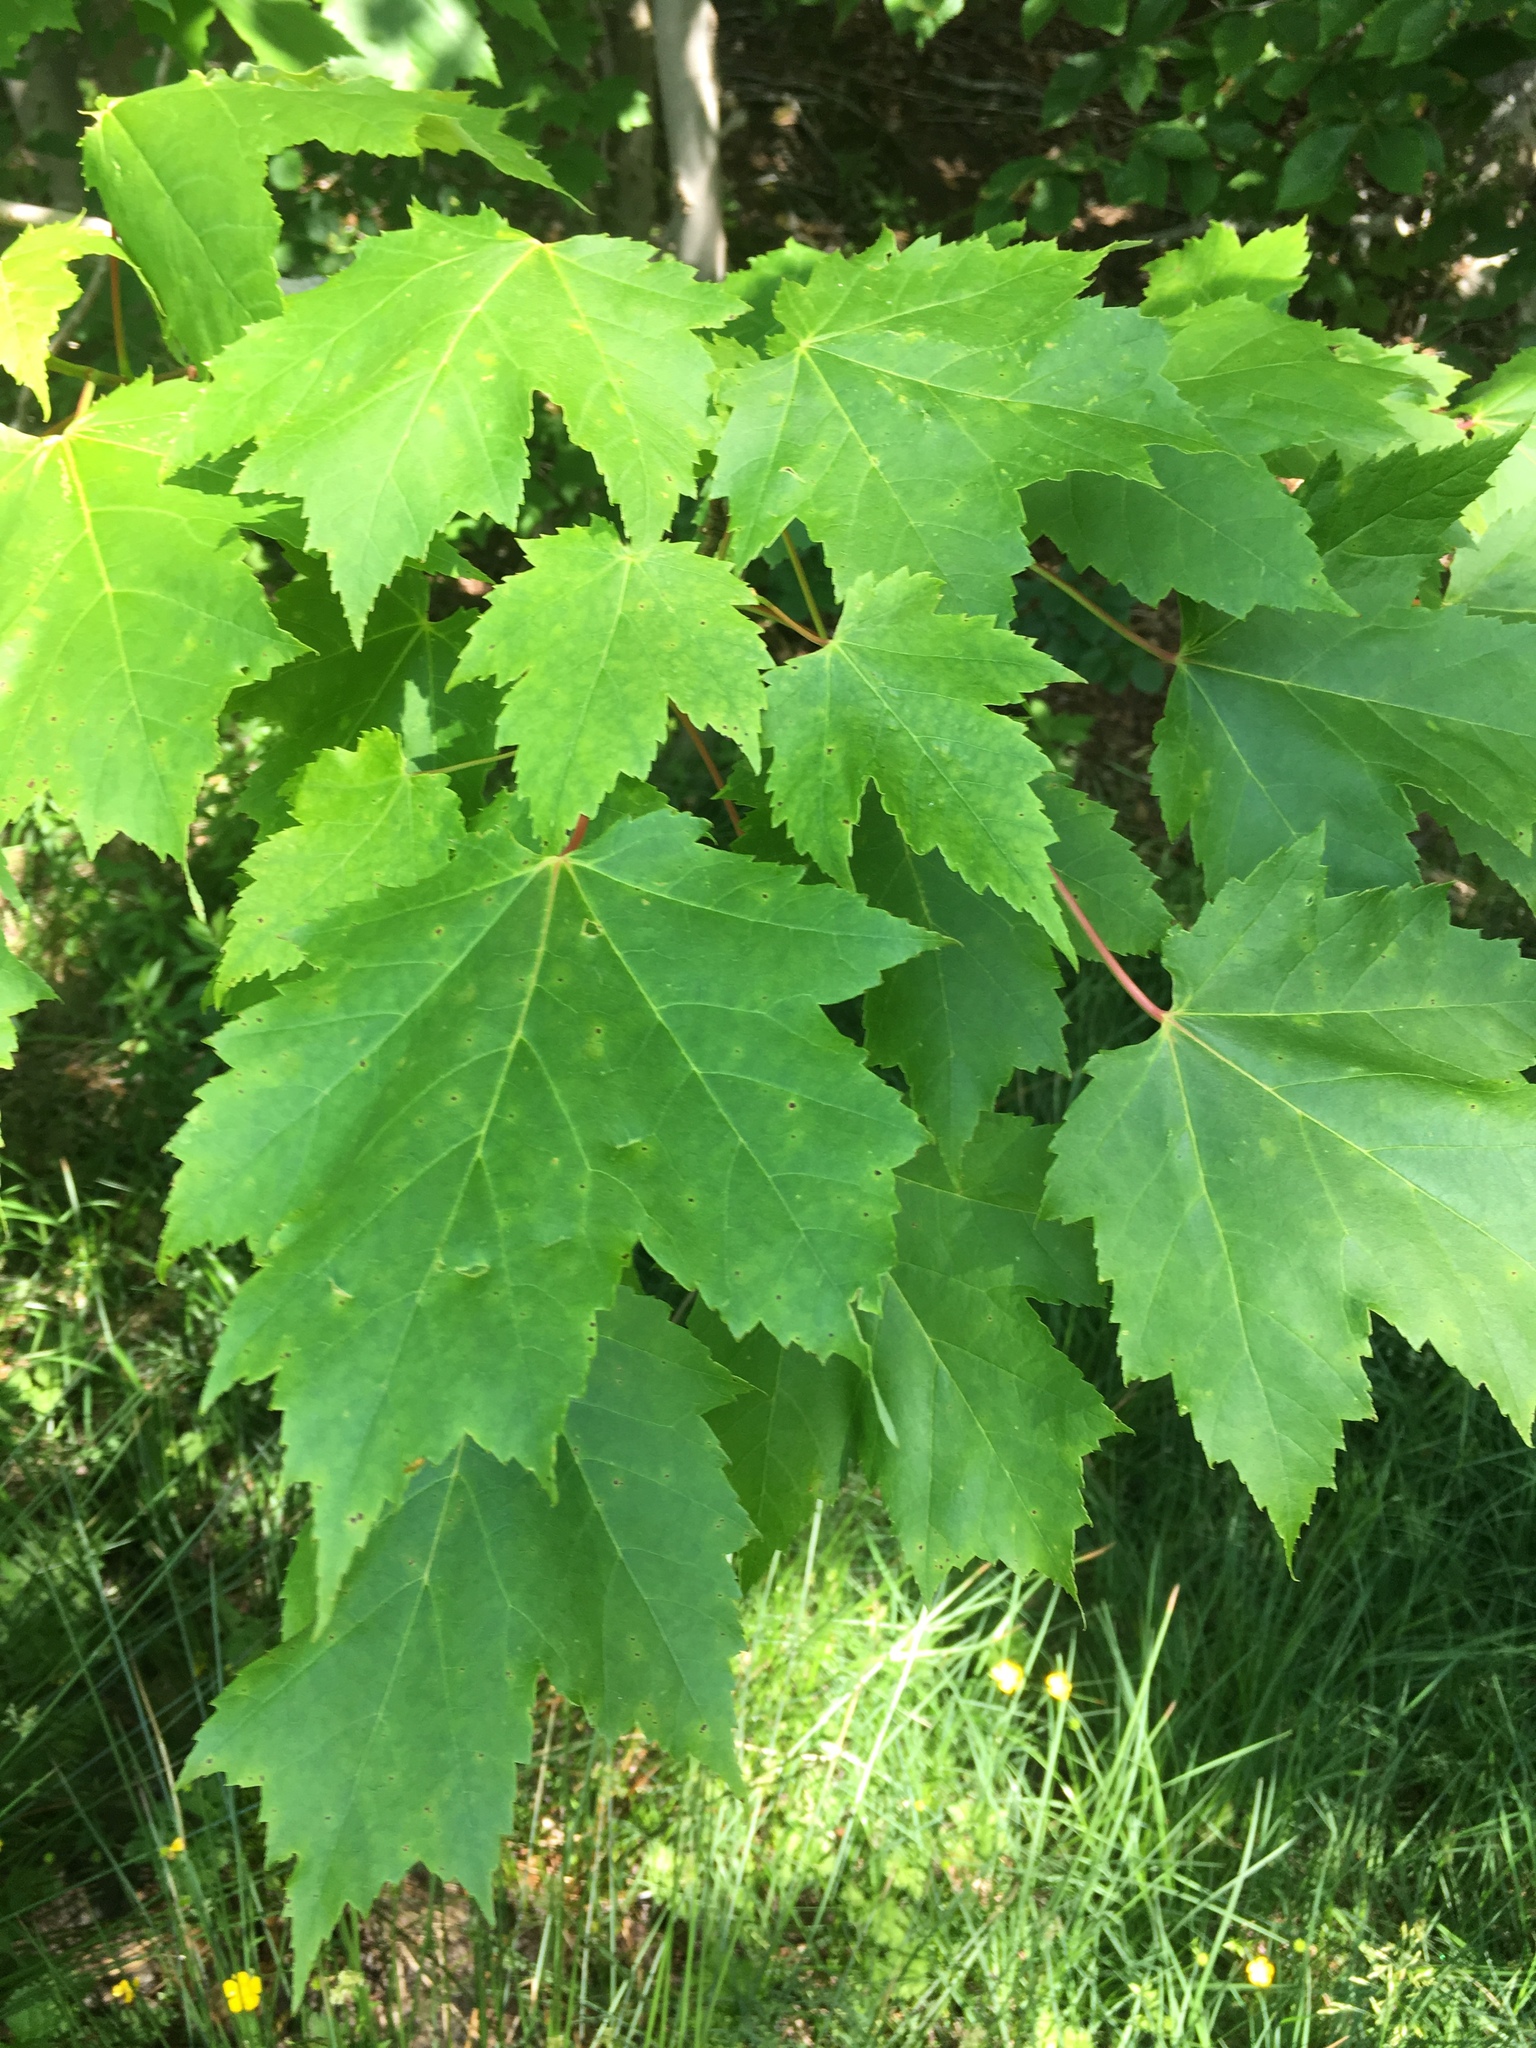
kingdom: Plantae
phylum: Tracheophyta
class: Magnoliopsida
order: Sapindales
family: Sapindaceae
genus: Acer
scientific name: Acer rubrum
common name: Red maple
